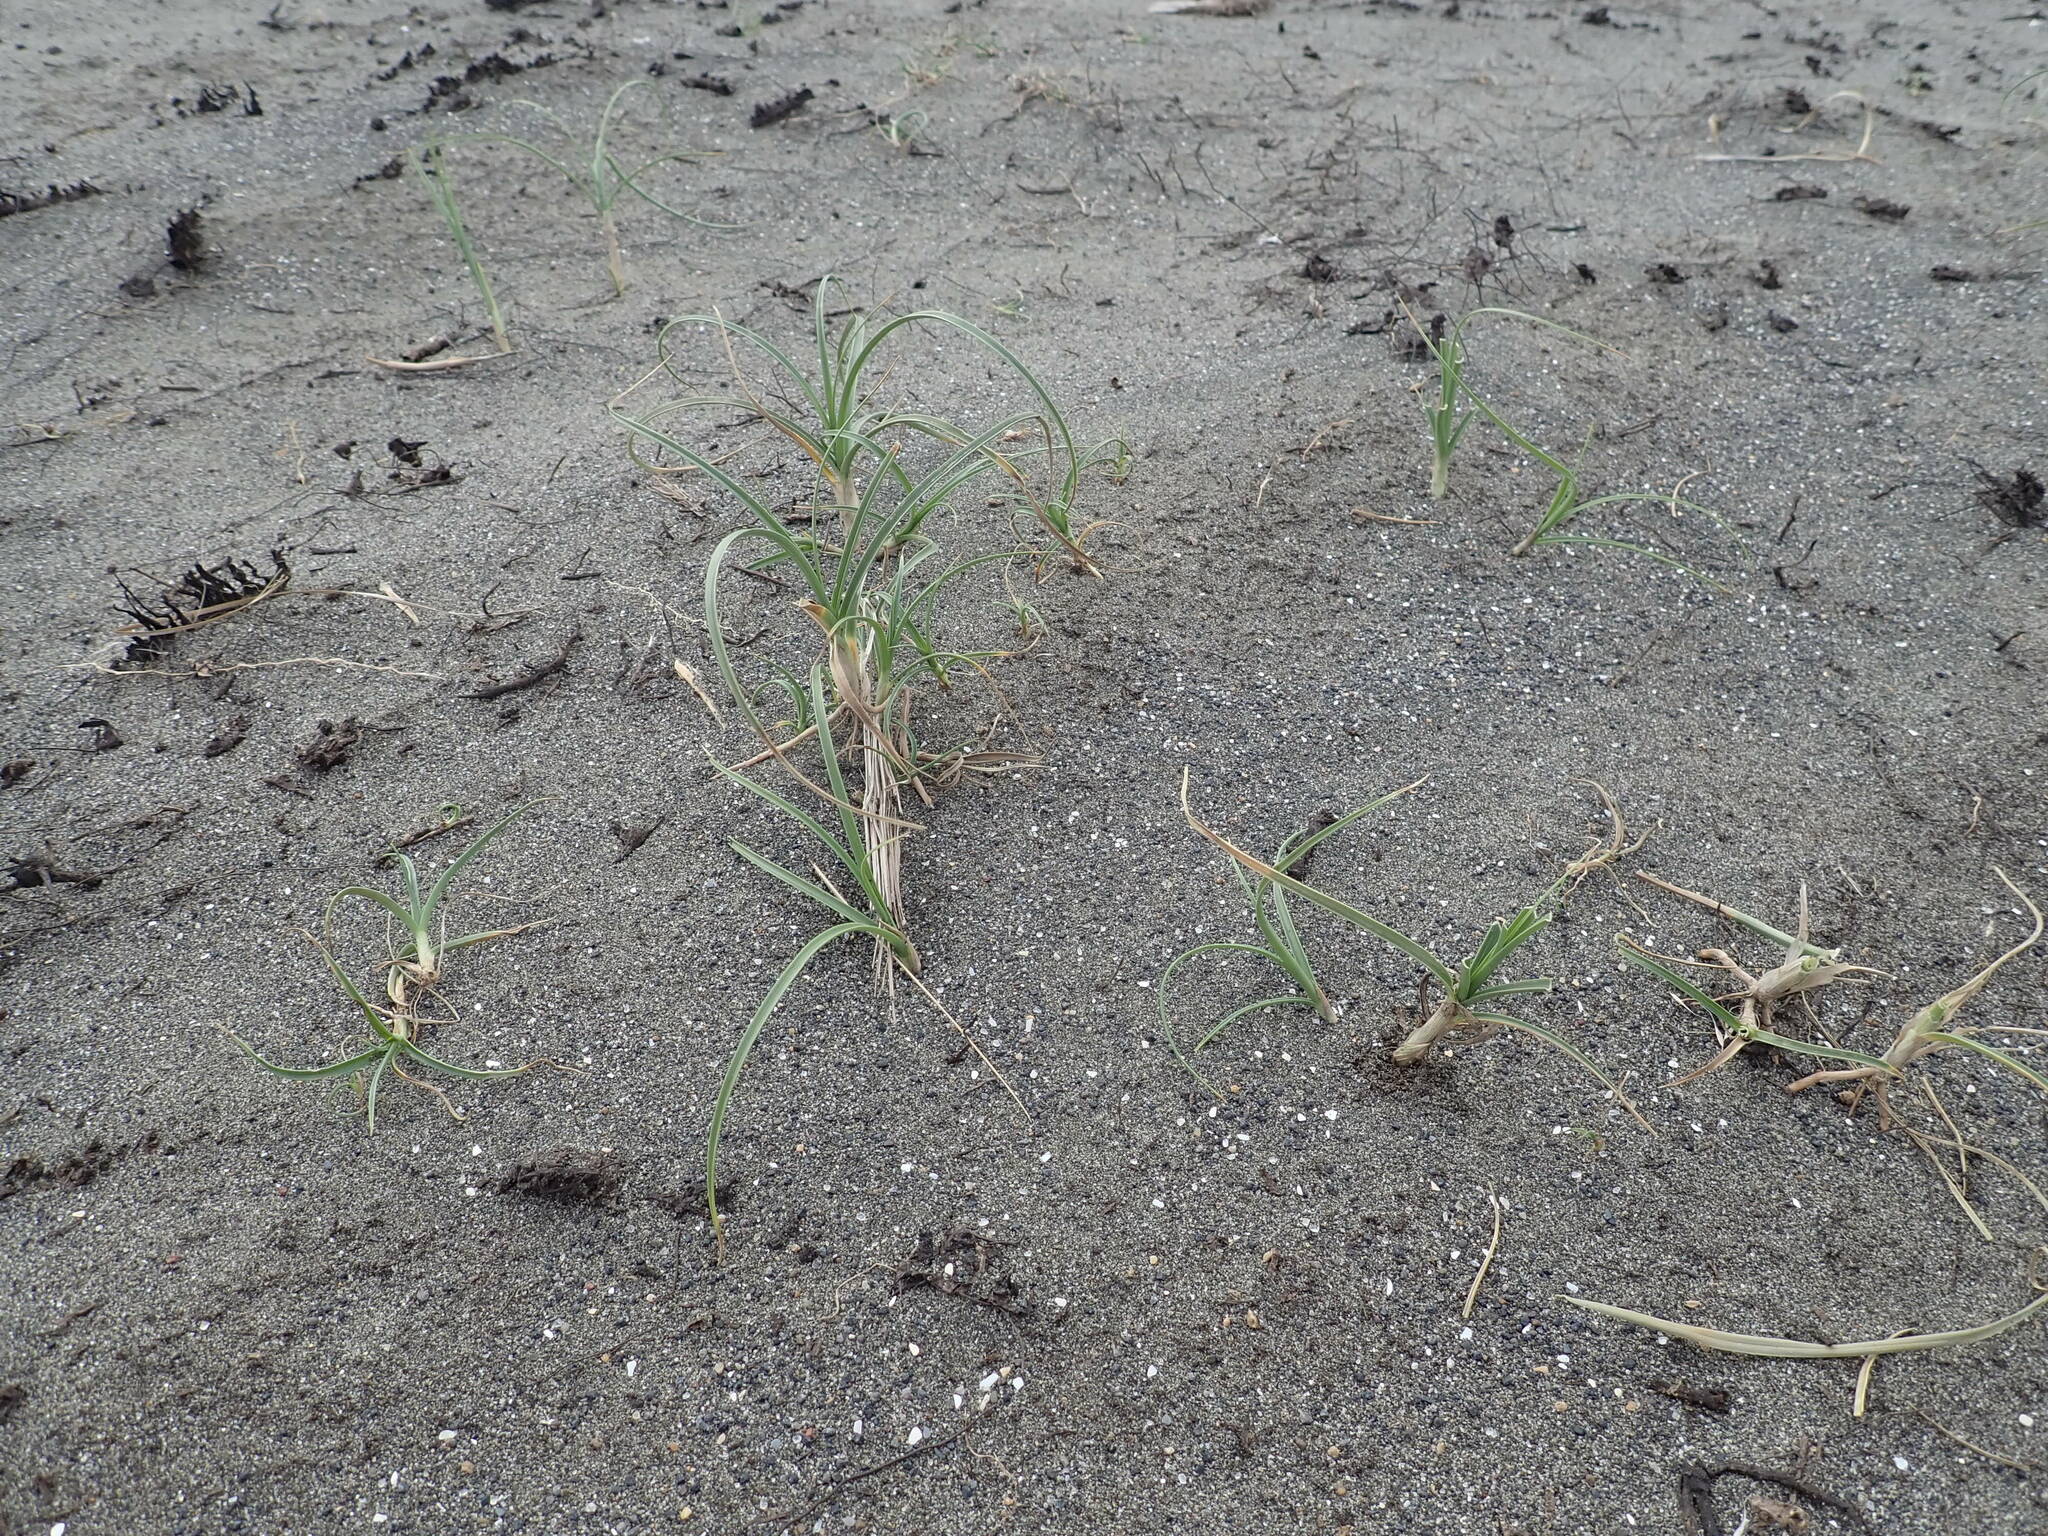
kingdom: Plantae
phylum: Tracheophyta
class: Liliopsida
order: Poales
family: Cyperaceae
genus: Carex
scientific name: Carex pumila
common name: Dwarf sedge
